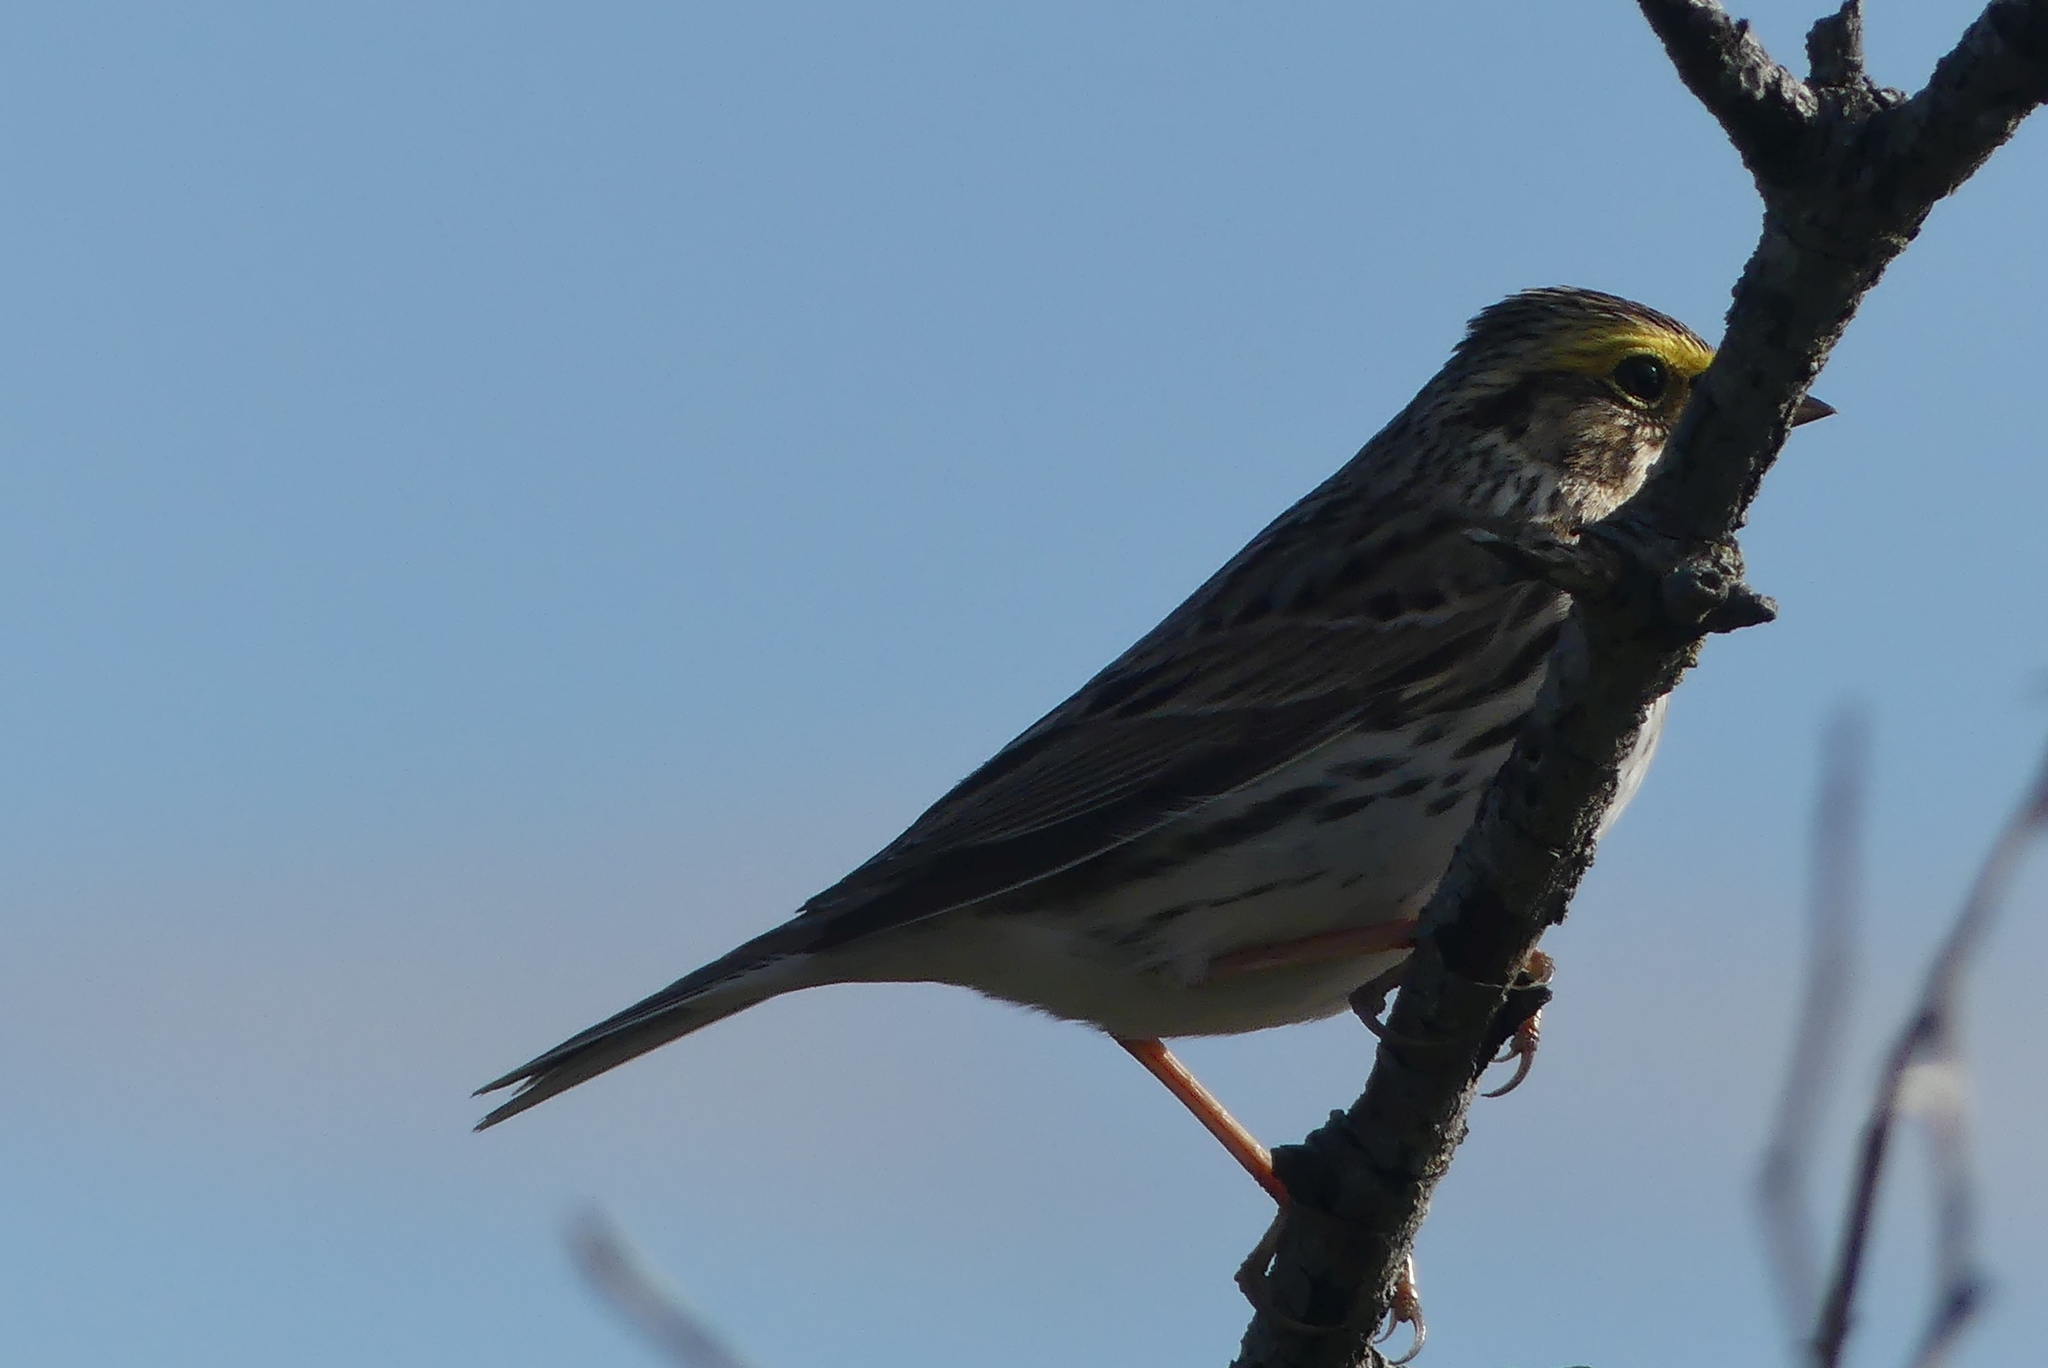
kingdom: Animalia
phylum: Chordata
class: Aves
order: Passeriformes
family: Passerellidae
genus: Passerculus
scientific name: Passerculus sandwichensis
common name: Savannah sparrow
